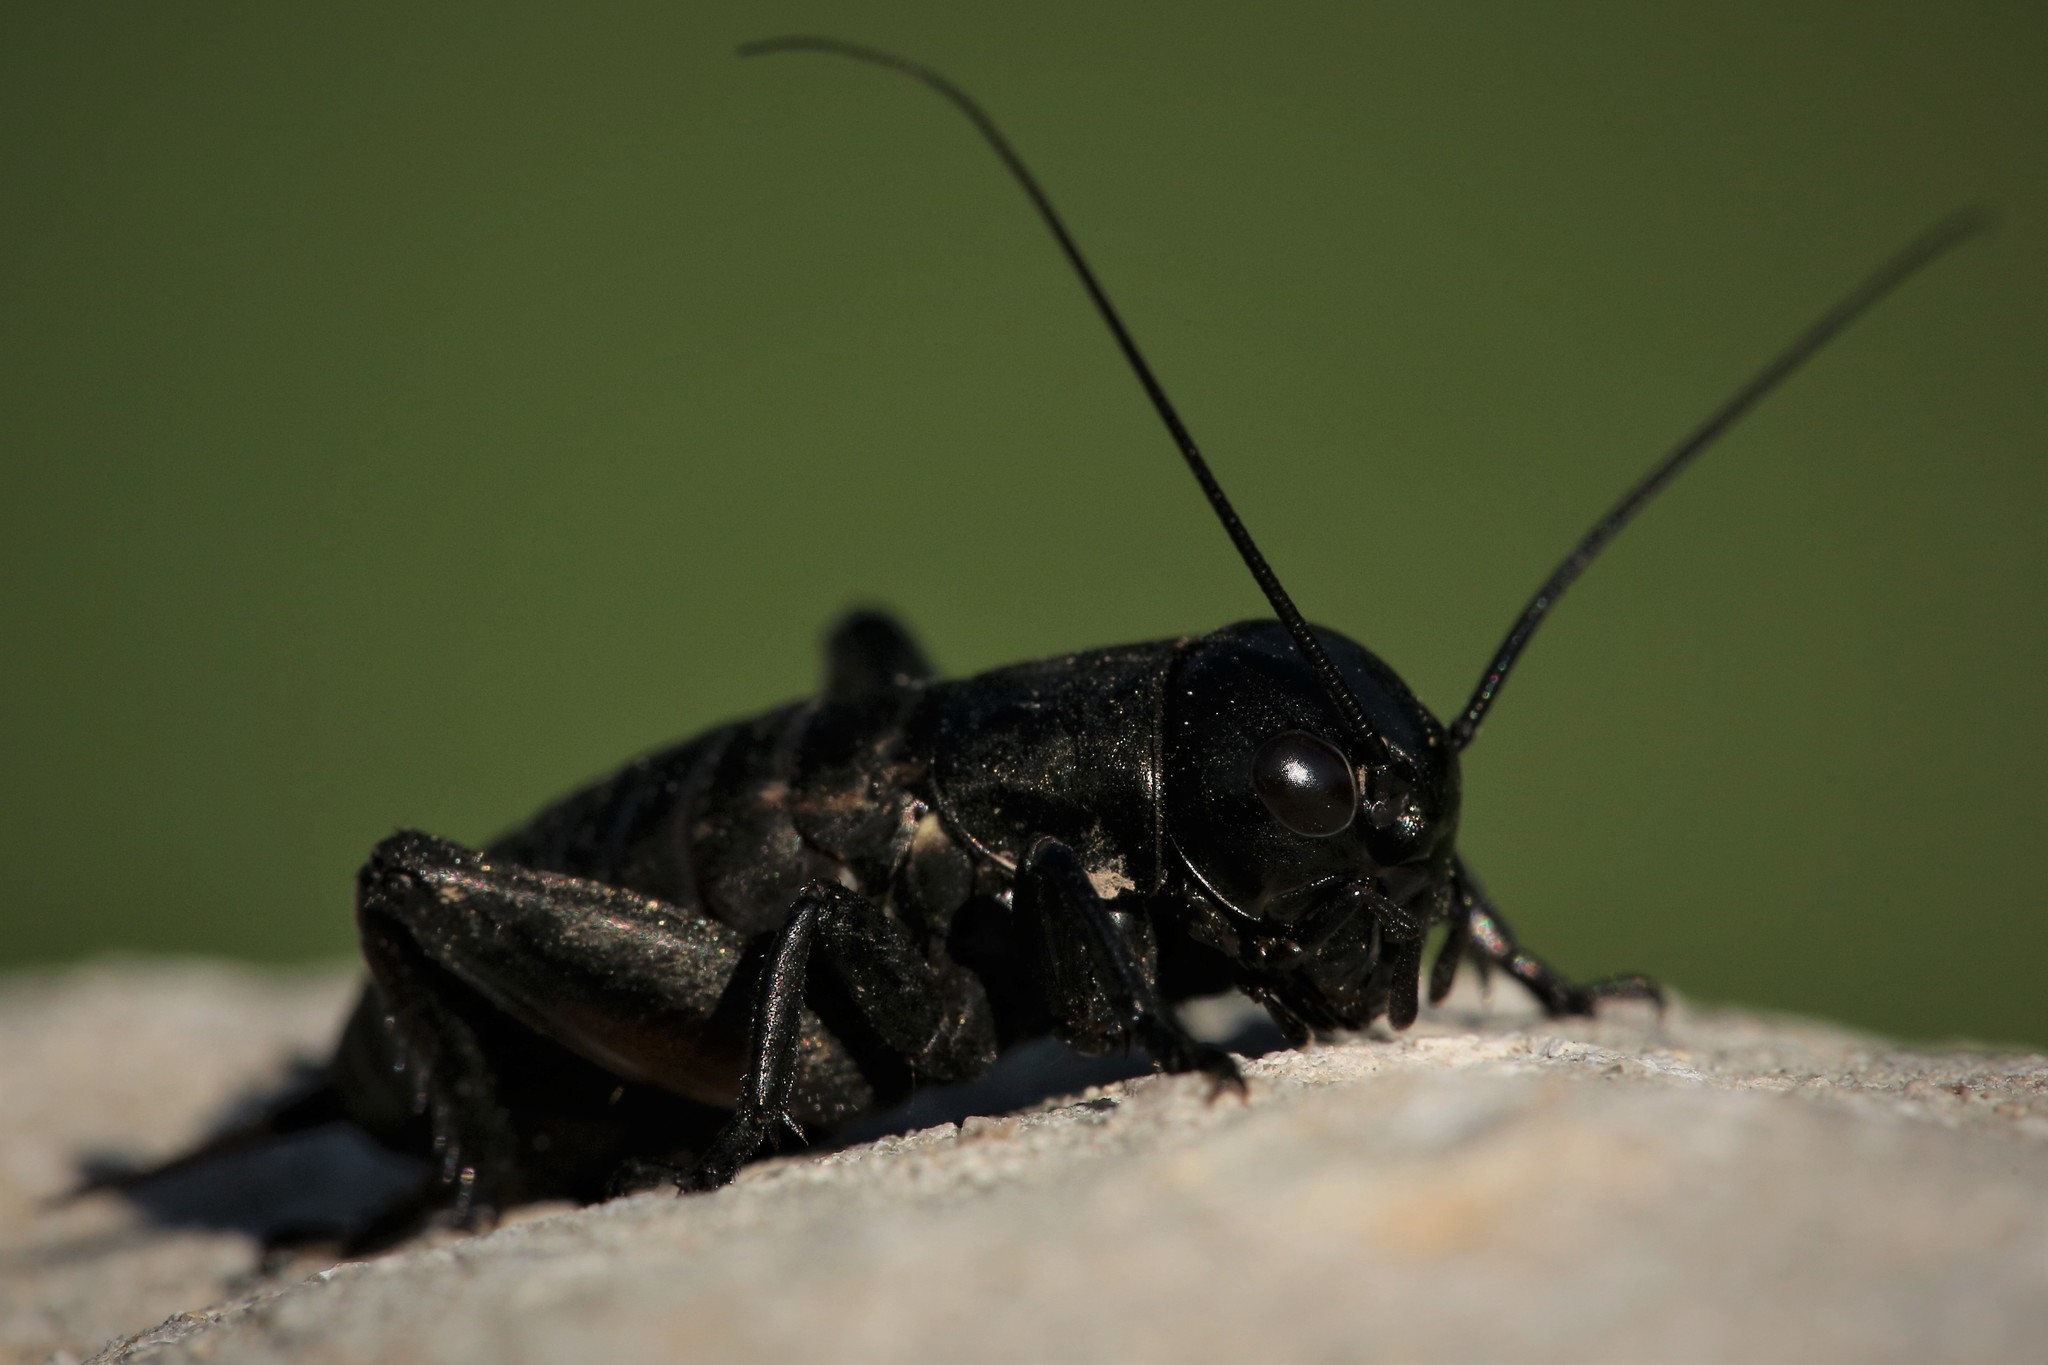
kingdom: Animalia
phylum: Arthropoda
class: Insecta
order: Orthoptera
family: Gryllidae
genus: Gryllus
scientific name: Gryllus campestris
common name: Field cricket
